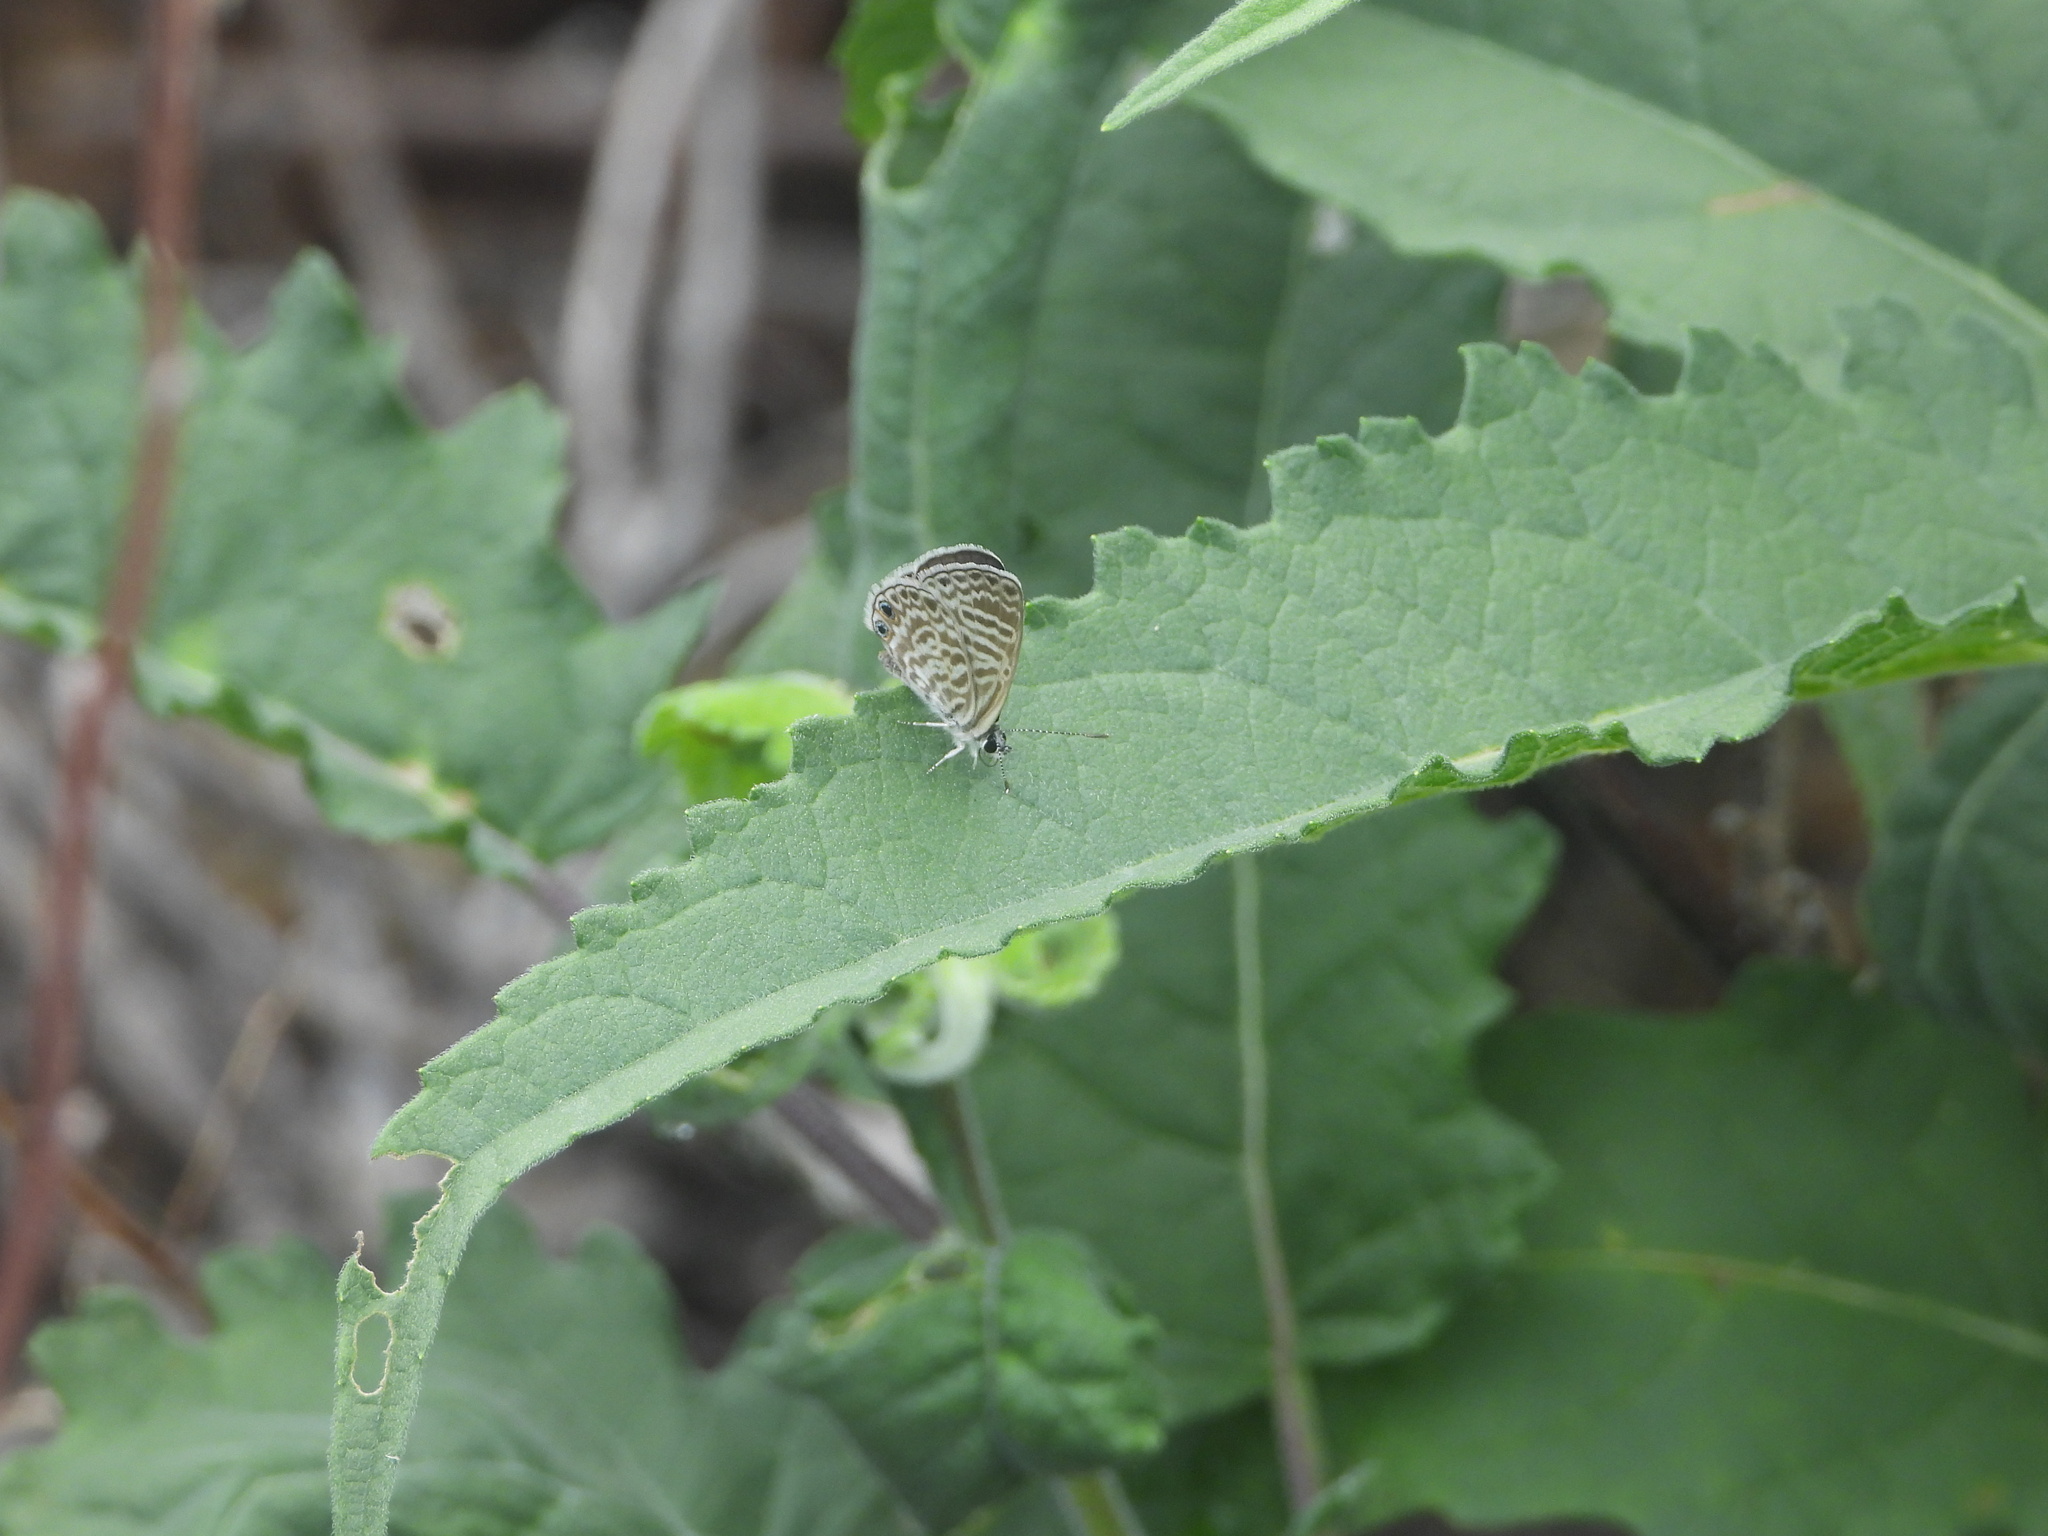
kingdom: Animalia
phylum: Arthropoda
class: Insecta
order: Lepidoptera
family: Lycaenidae
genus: Leptotes
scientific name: Leptotes marina
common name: Marine blue
